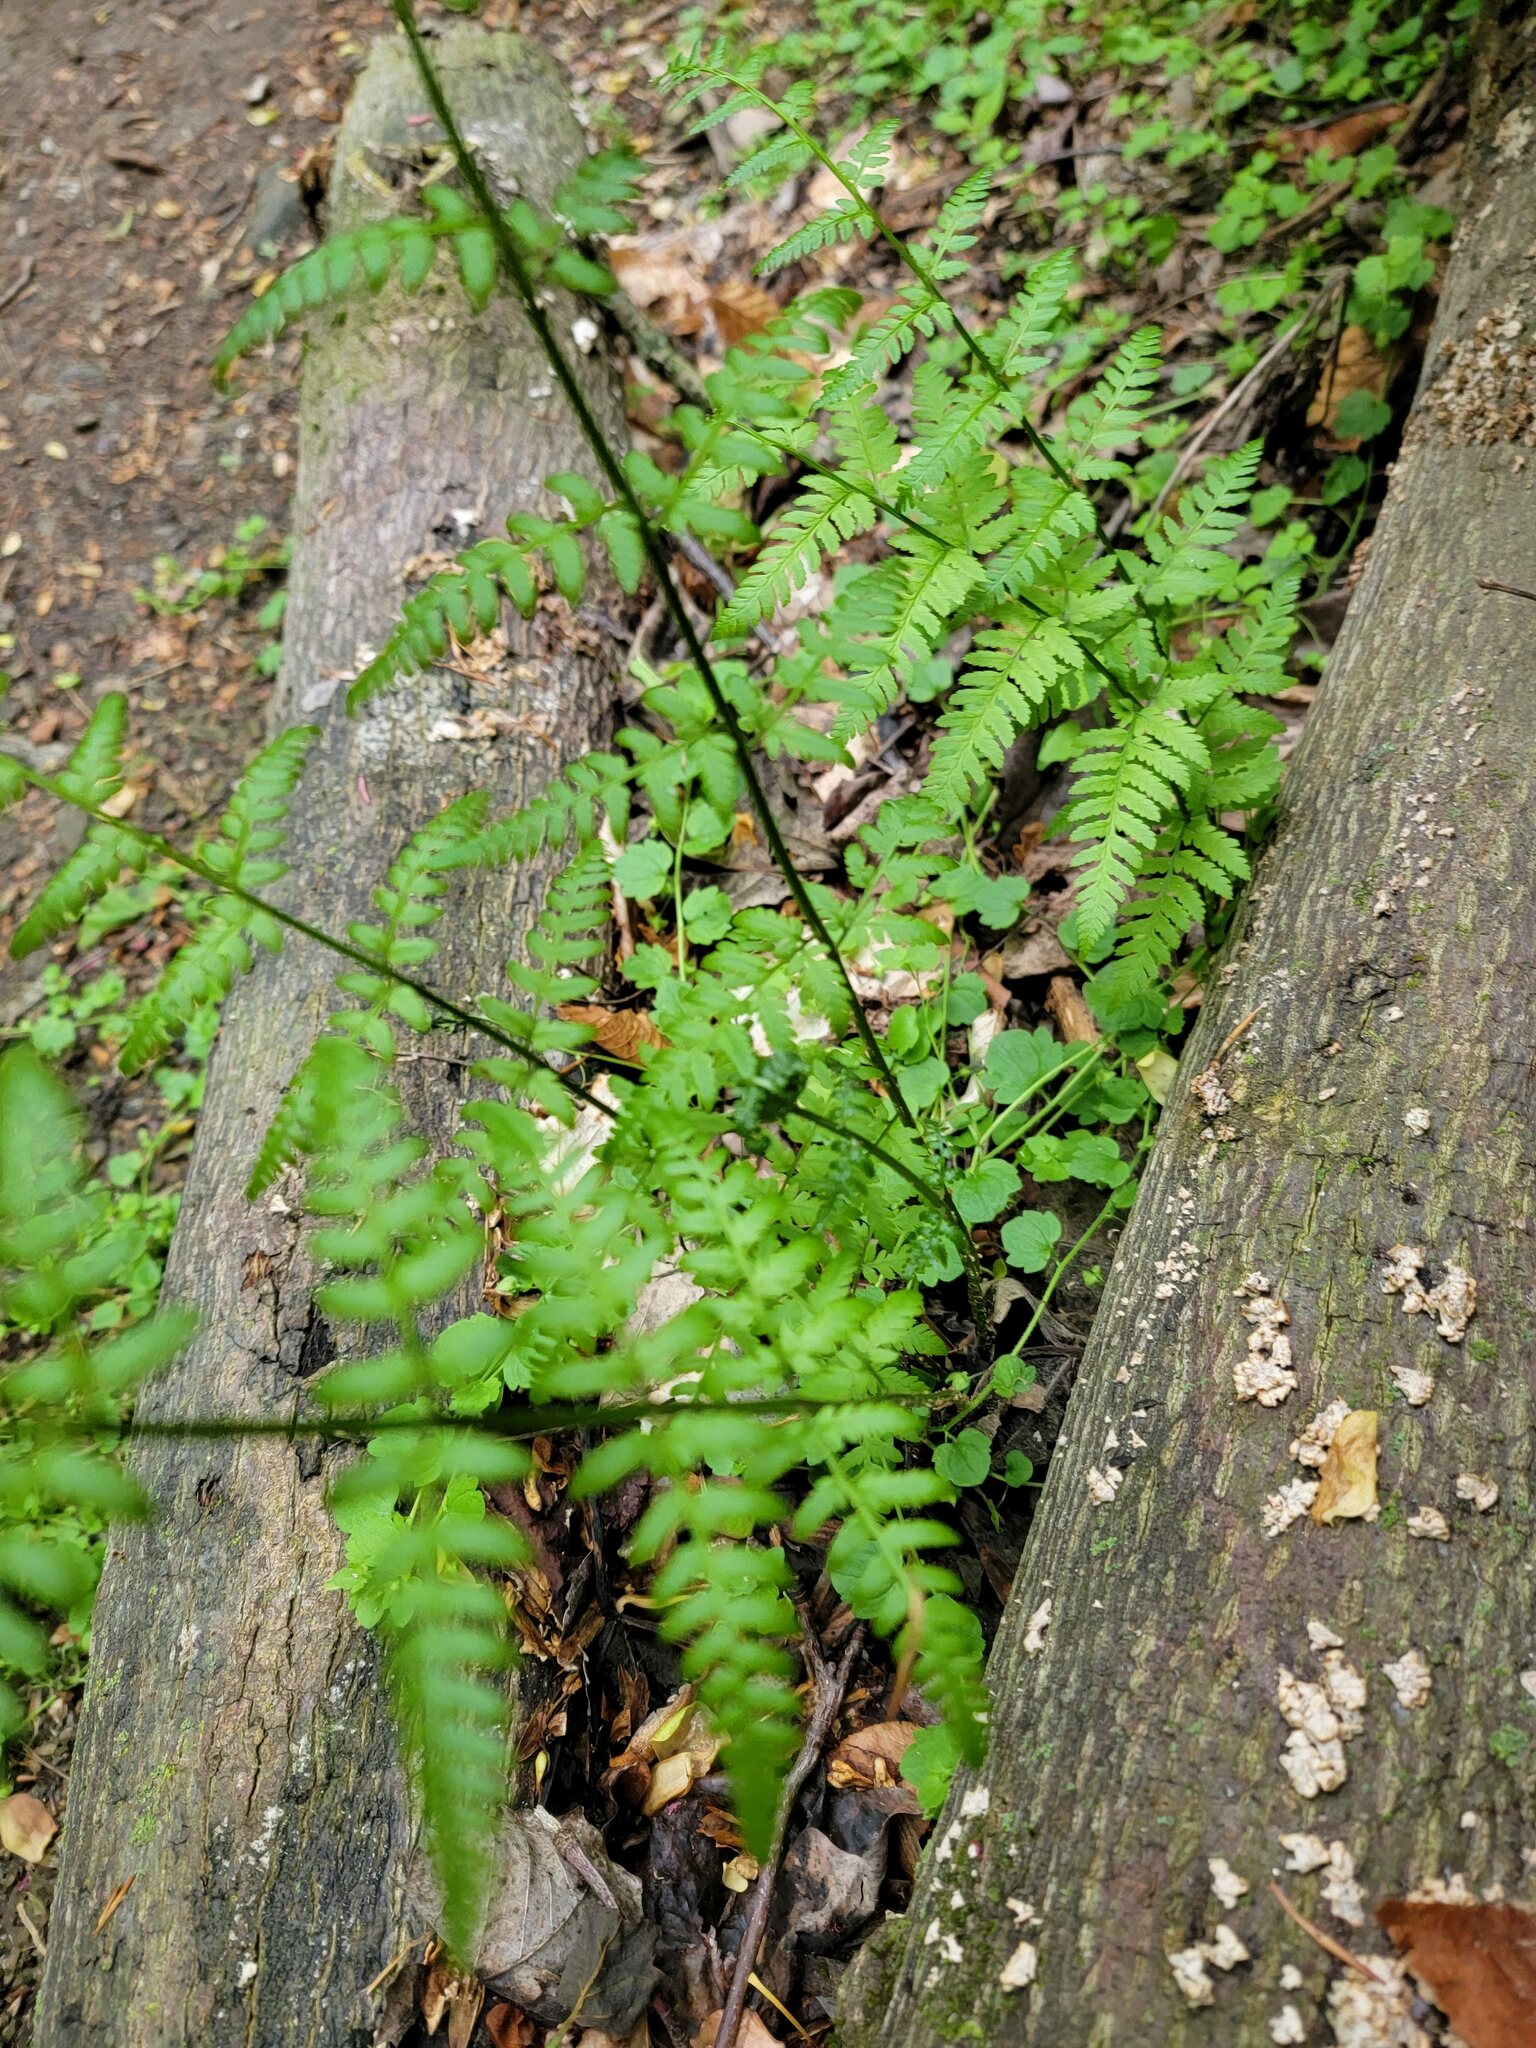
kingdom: Plantae
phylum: Tracheophyta
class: Polypodiopsida
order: Polypodiales
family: Dryopteridaceae
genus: Dryopteris
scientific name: Dryopteris carthusiana
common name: Narrow buckler-fern
